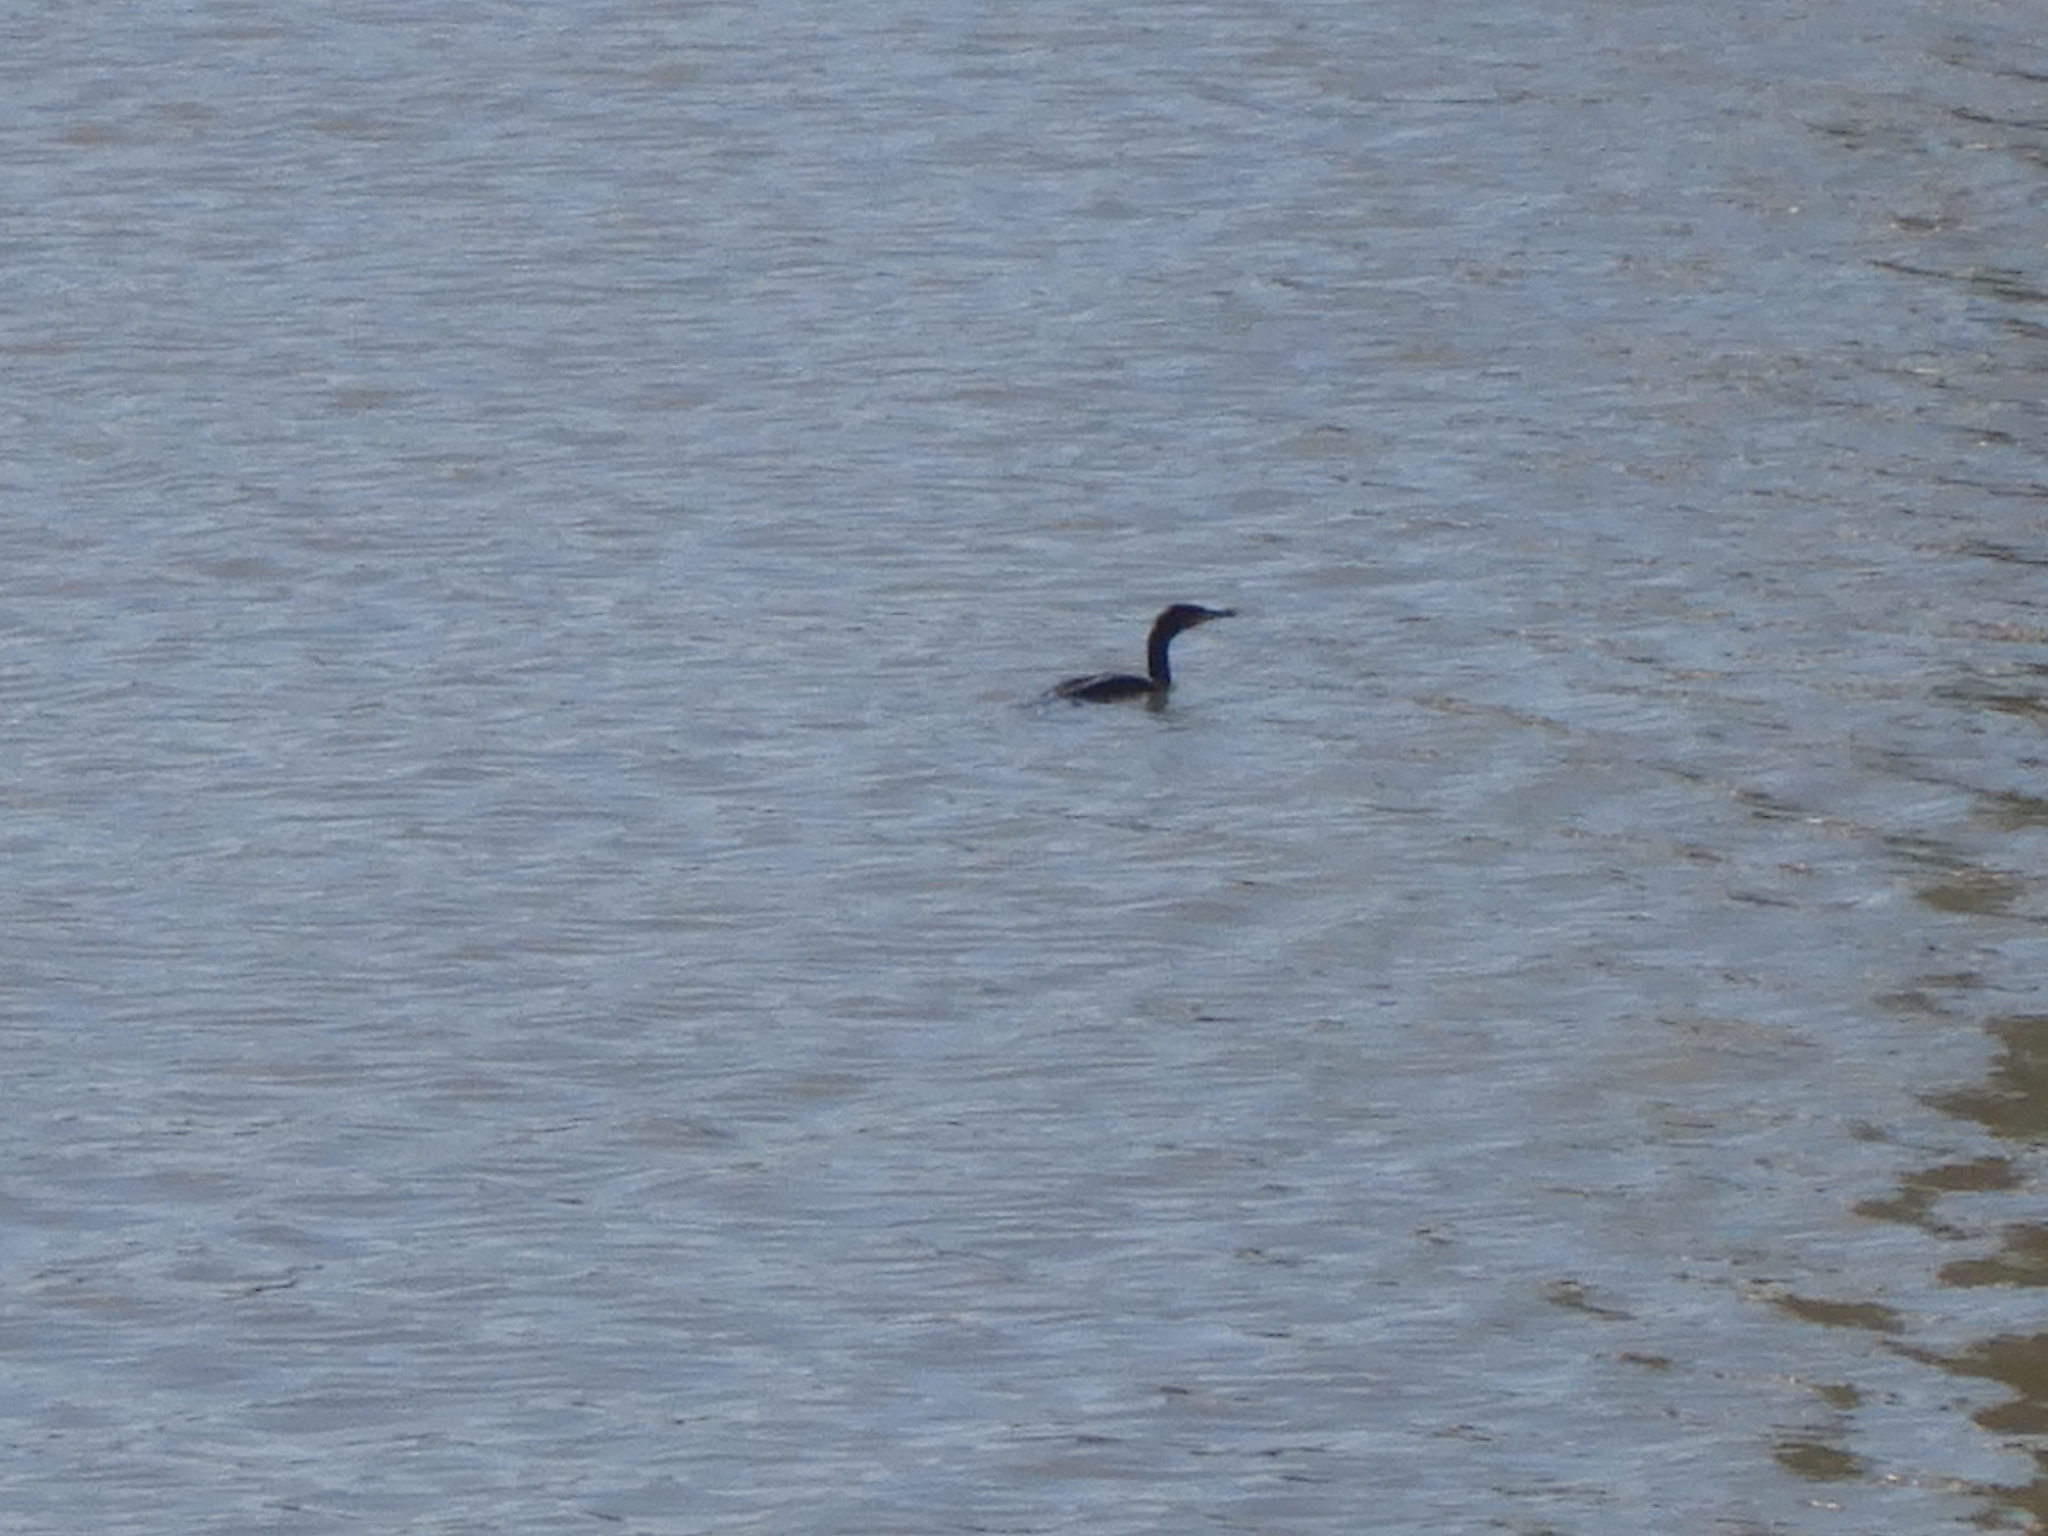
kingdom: Animalia
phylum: Chordata
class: Aves
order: Suliformes
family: Phalacrocoracidae
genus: Phalacrocorax
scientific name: Phalacrocorax carbo
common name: Great cormorant
